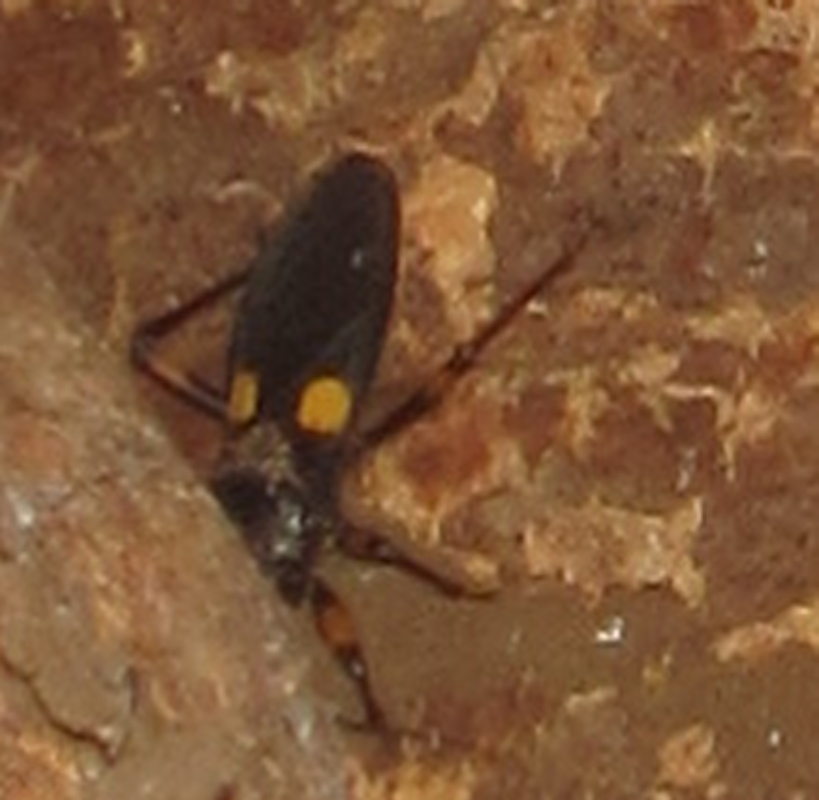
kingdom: Animalia
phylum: Arthropoda
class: Insecta
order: Hemiptera
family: Reduviidae
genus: Platymeris
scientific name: Platymeris guttatipennis
